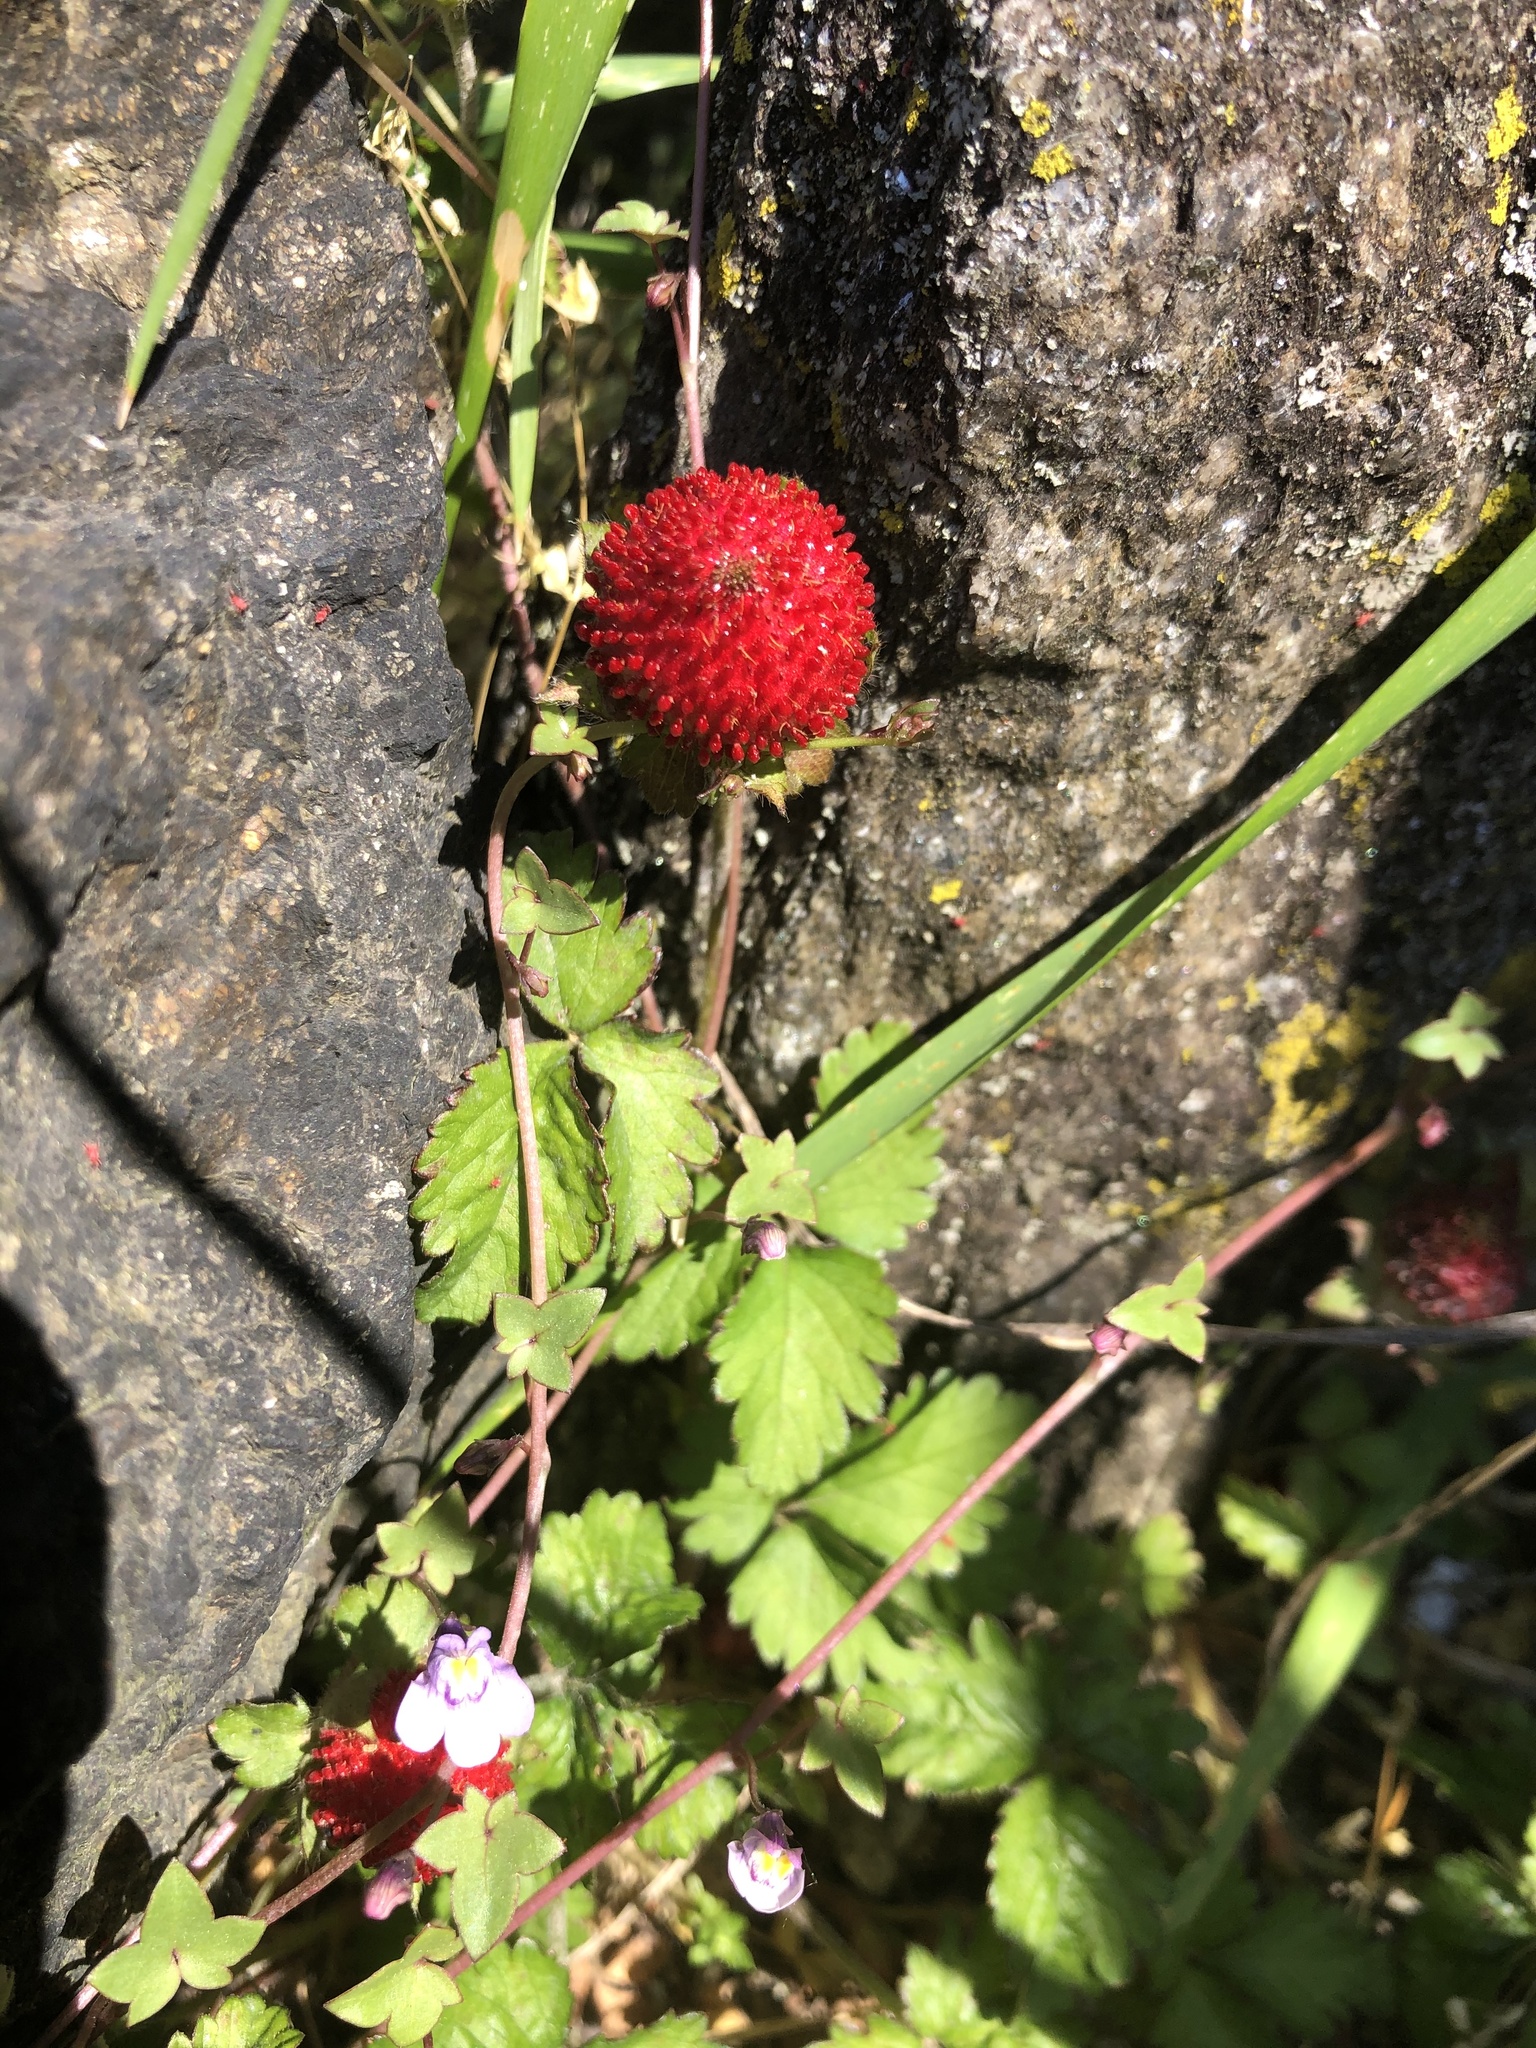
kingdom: Plantae
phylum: Tracheophyta
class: Magnoliopsida
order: Rosales
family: Rosaceae
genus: Potentilla
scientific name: Potentilla indica
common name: Yellow-flowered strawberry
